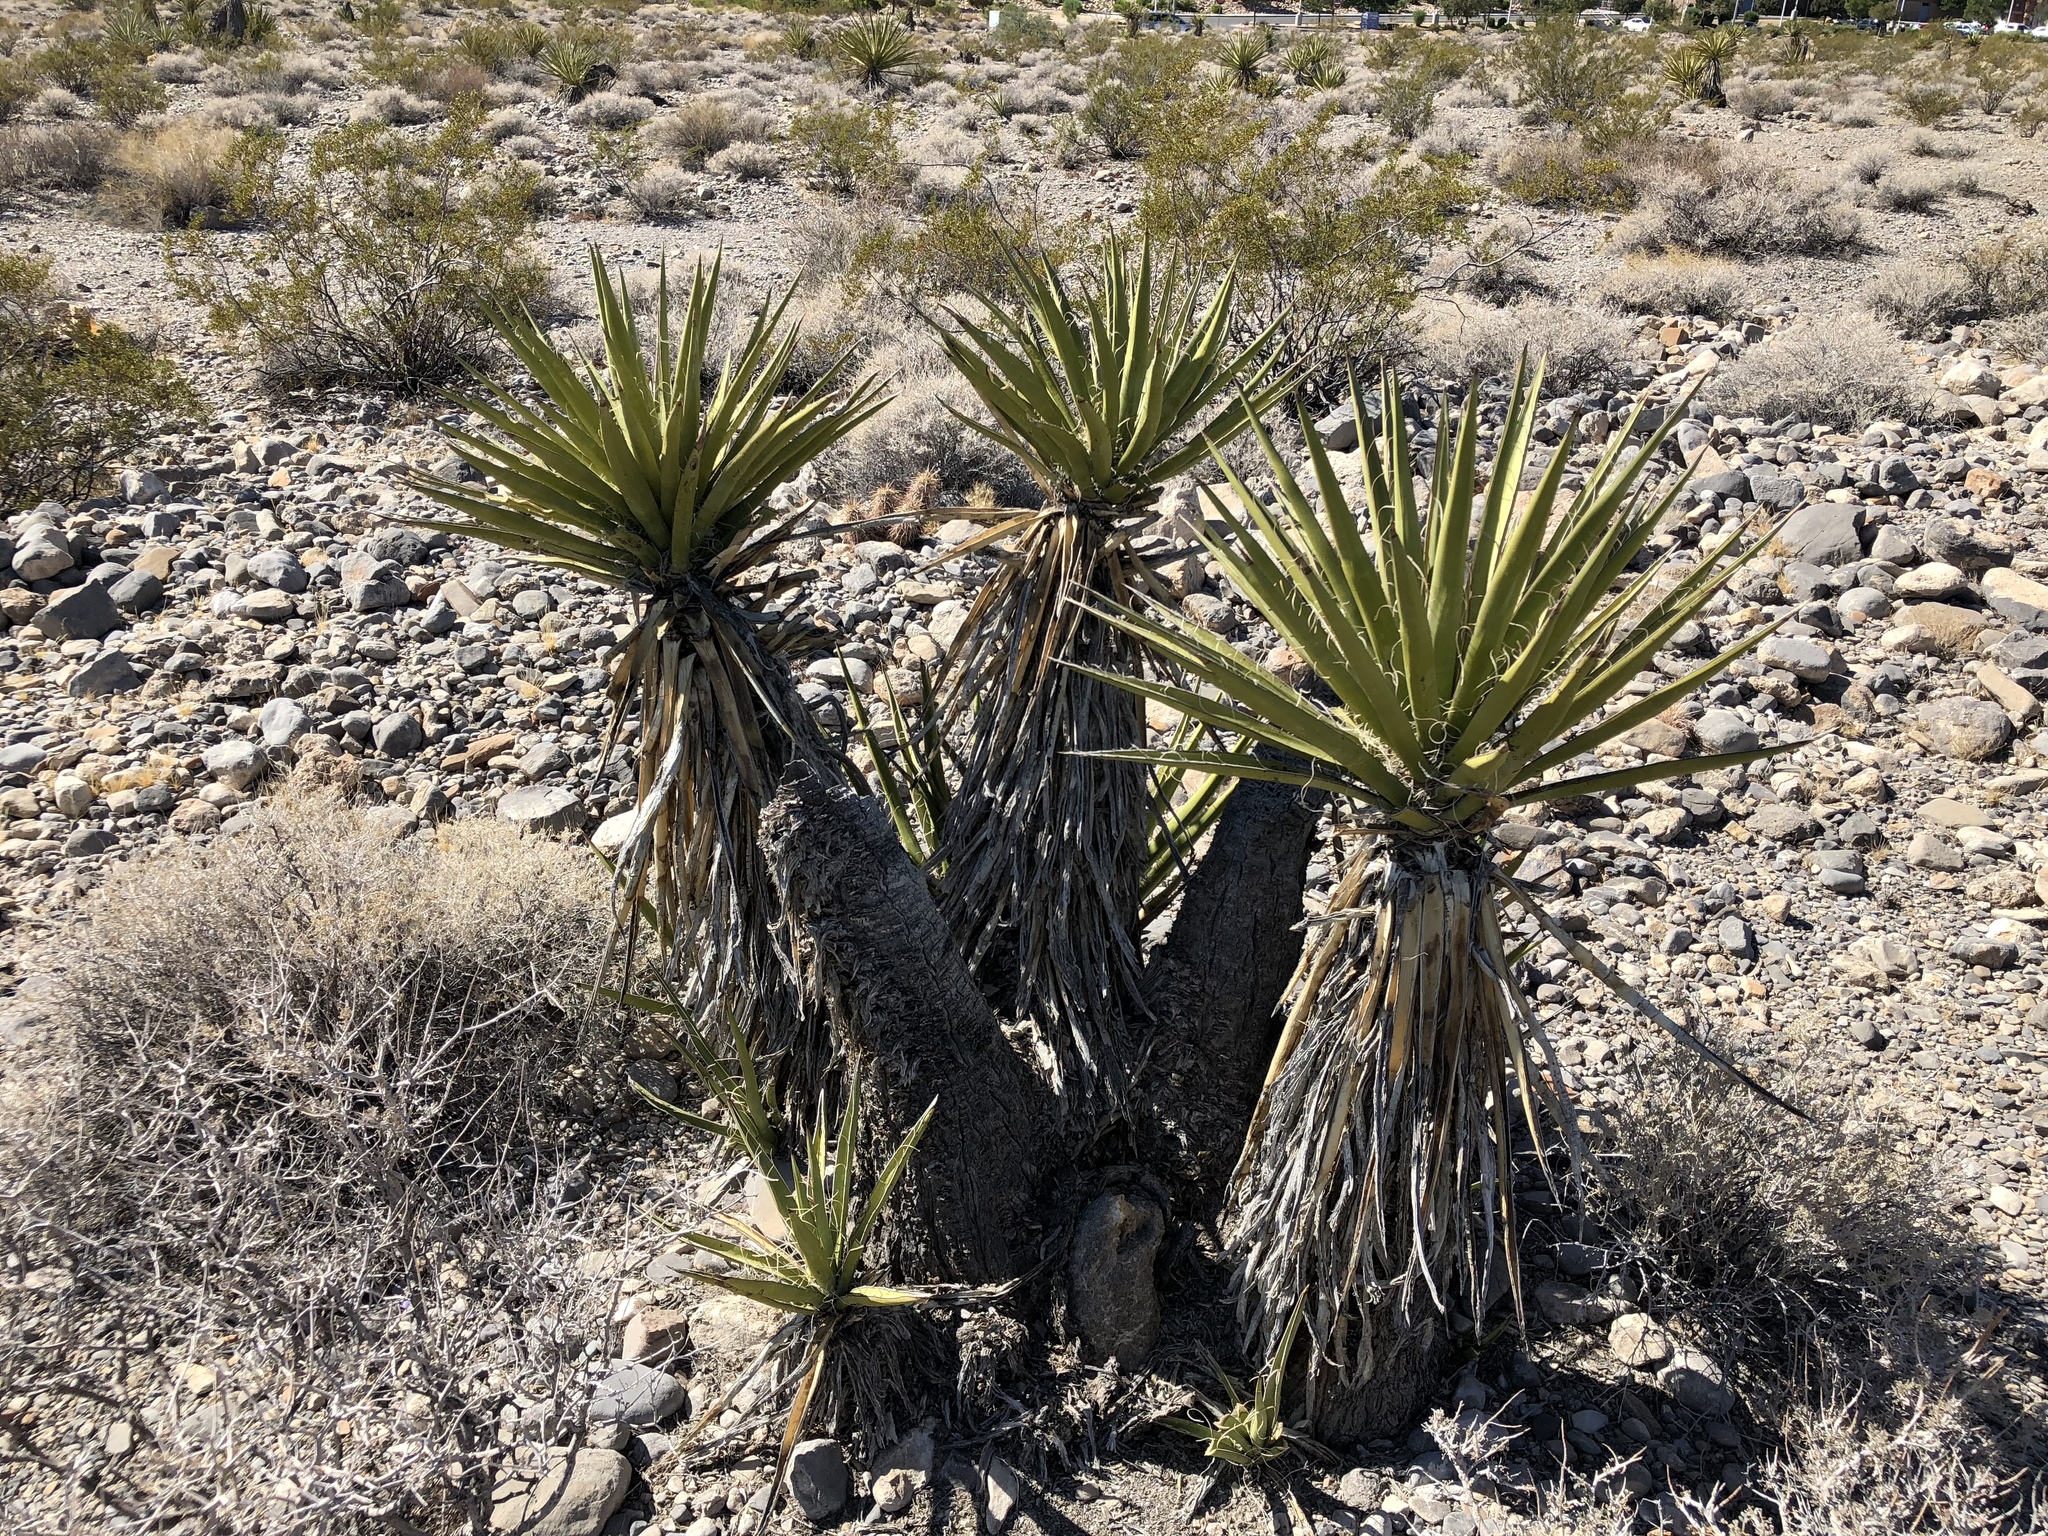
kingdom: Plantae
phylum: Tracheophyta
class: Liliopsida
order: Asparagales
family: Asparagaceae
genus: Yucca
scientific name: Yucca schidigera
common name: Mojave yucca
